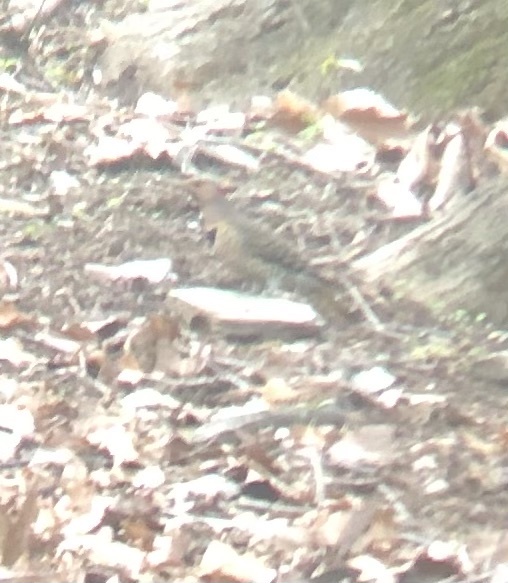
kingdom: Animalia
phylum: Chordata
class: Aves
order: Piciformes
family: Picidae
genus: Colaptes
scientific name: Colaptes auratus
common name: Northern flicker
